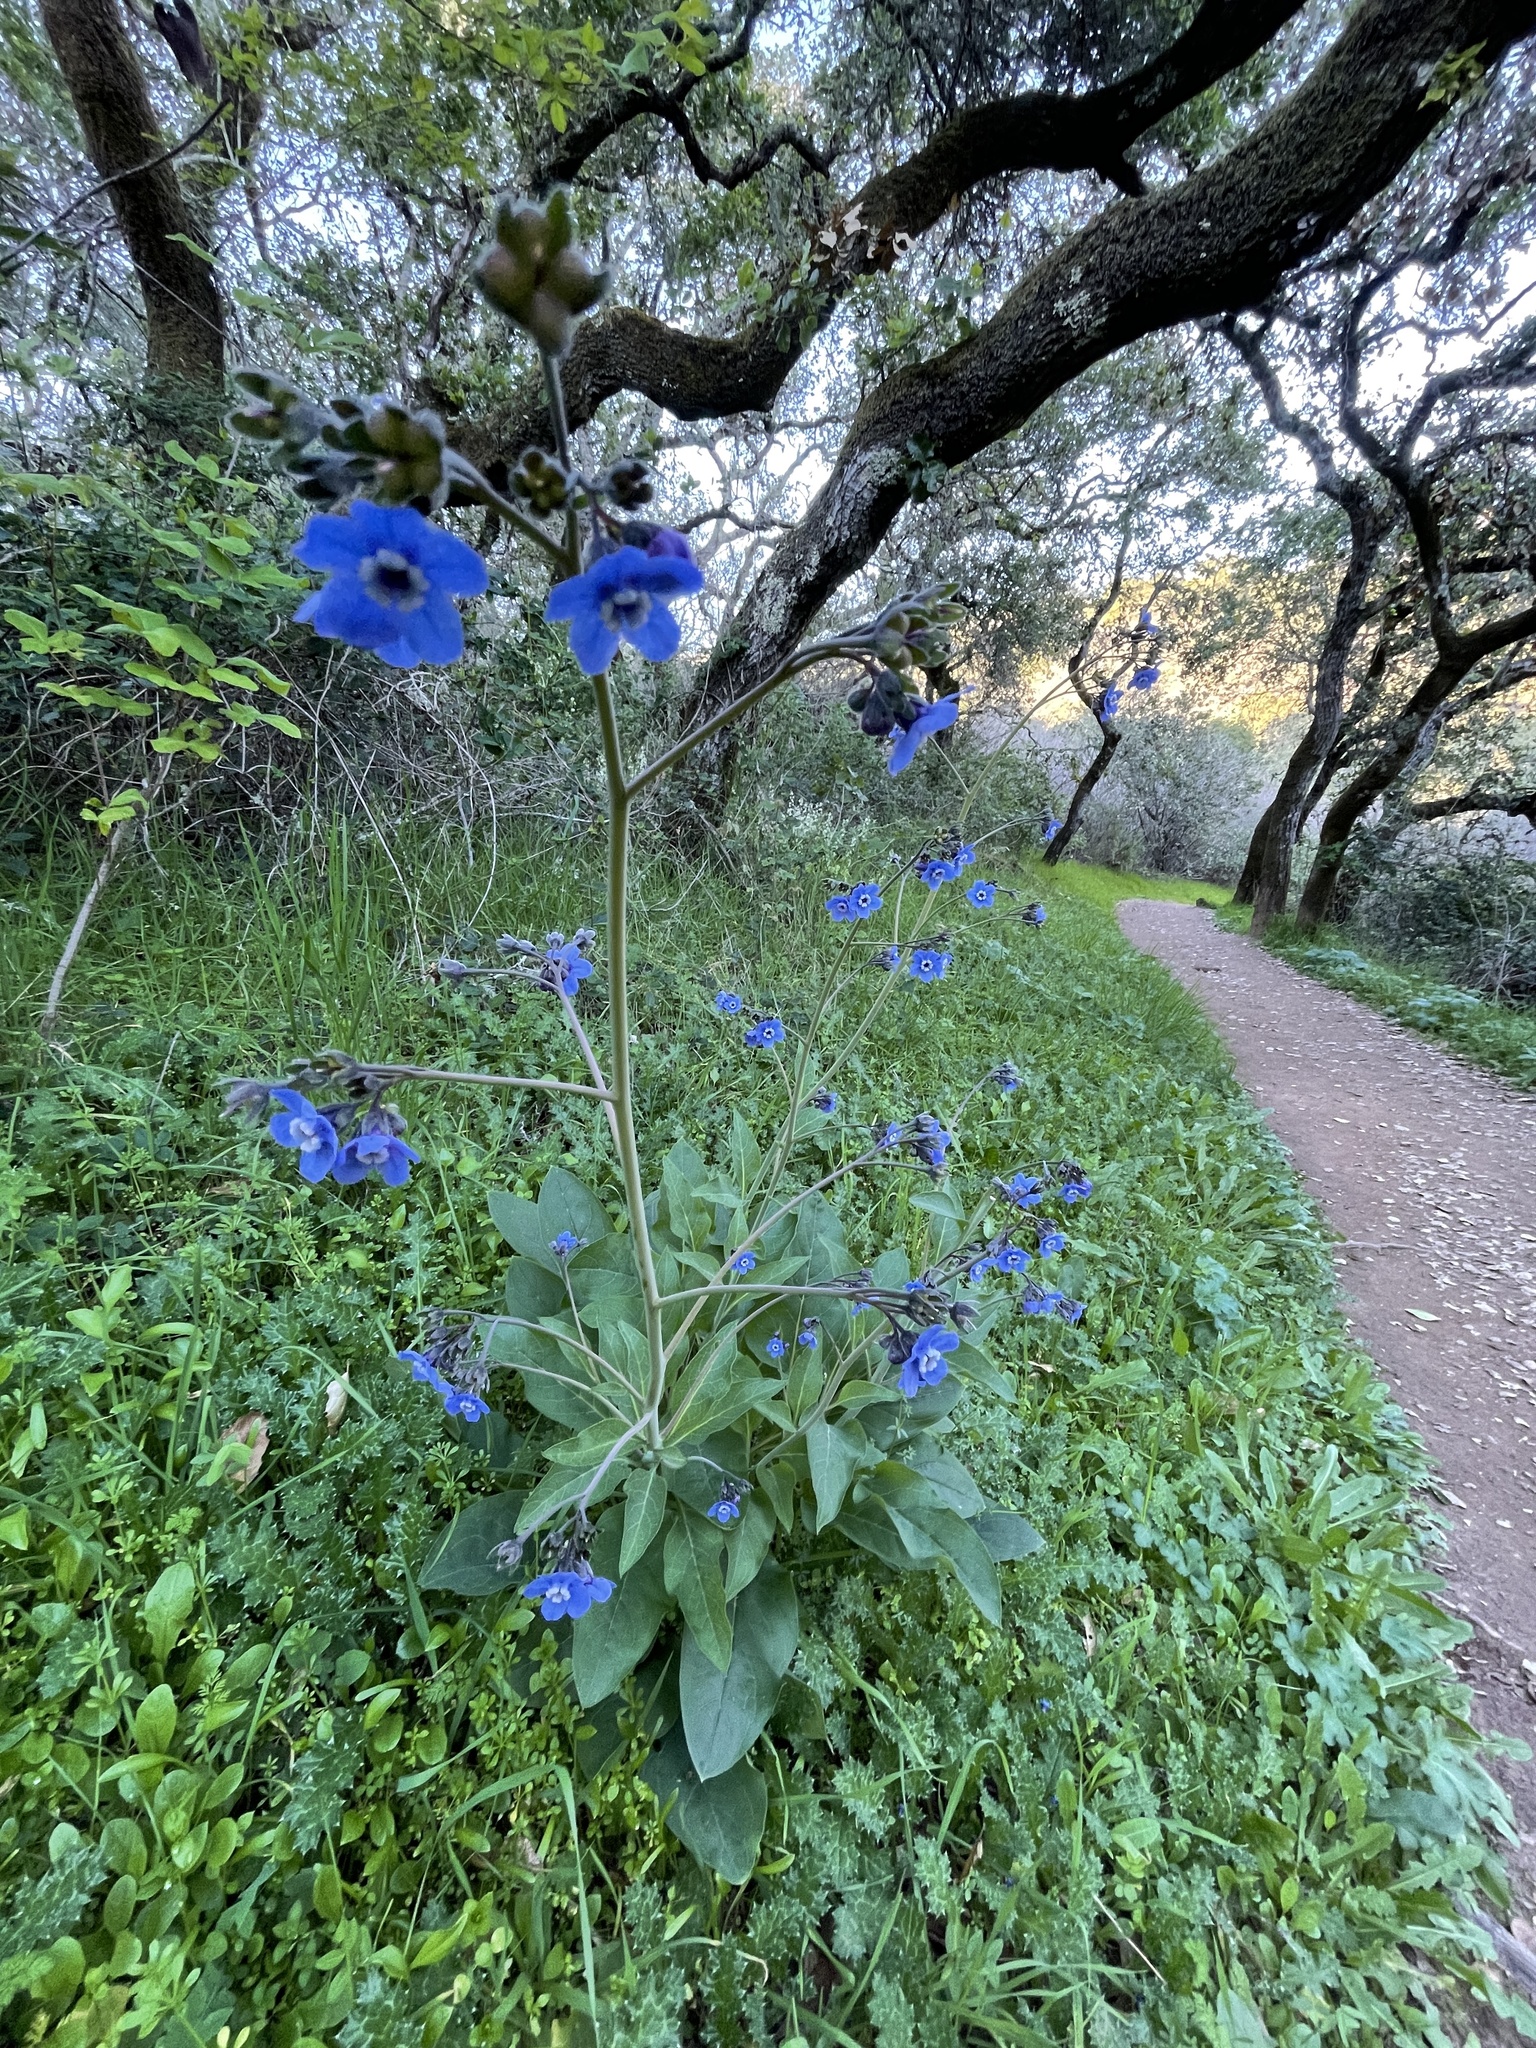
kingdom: Plantae
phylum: Tracheophyta
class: Magnoliopsida
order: Boraginales
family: Boraginaceae
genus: Adelinia
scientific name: Adelinia grande
